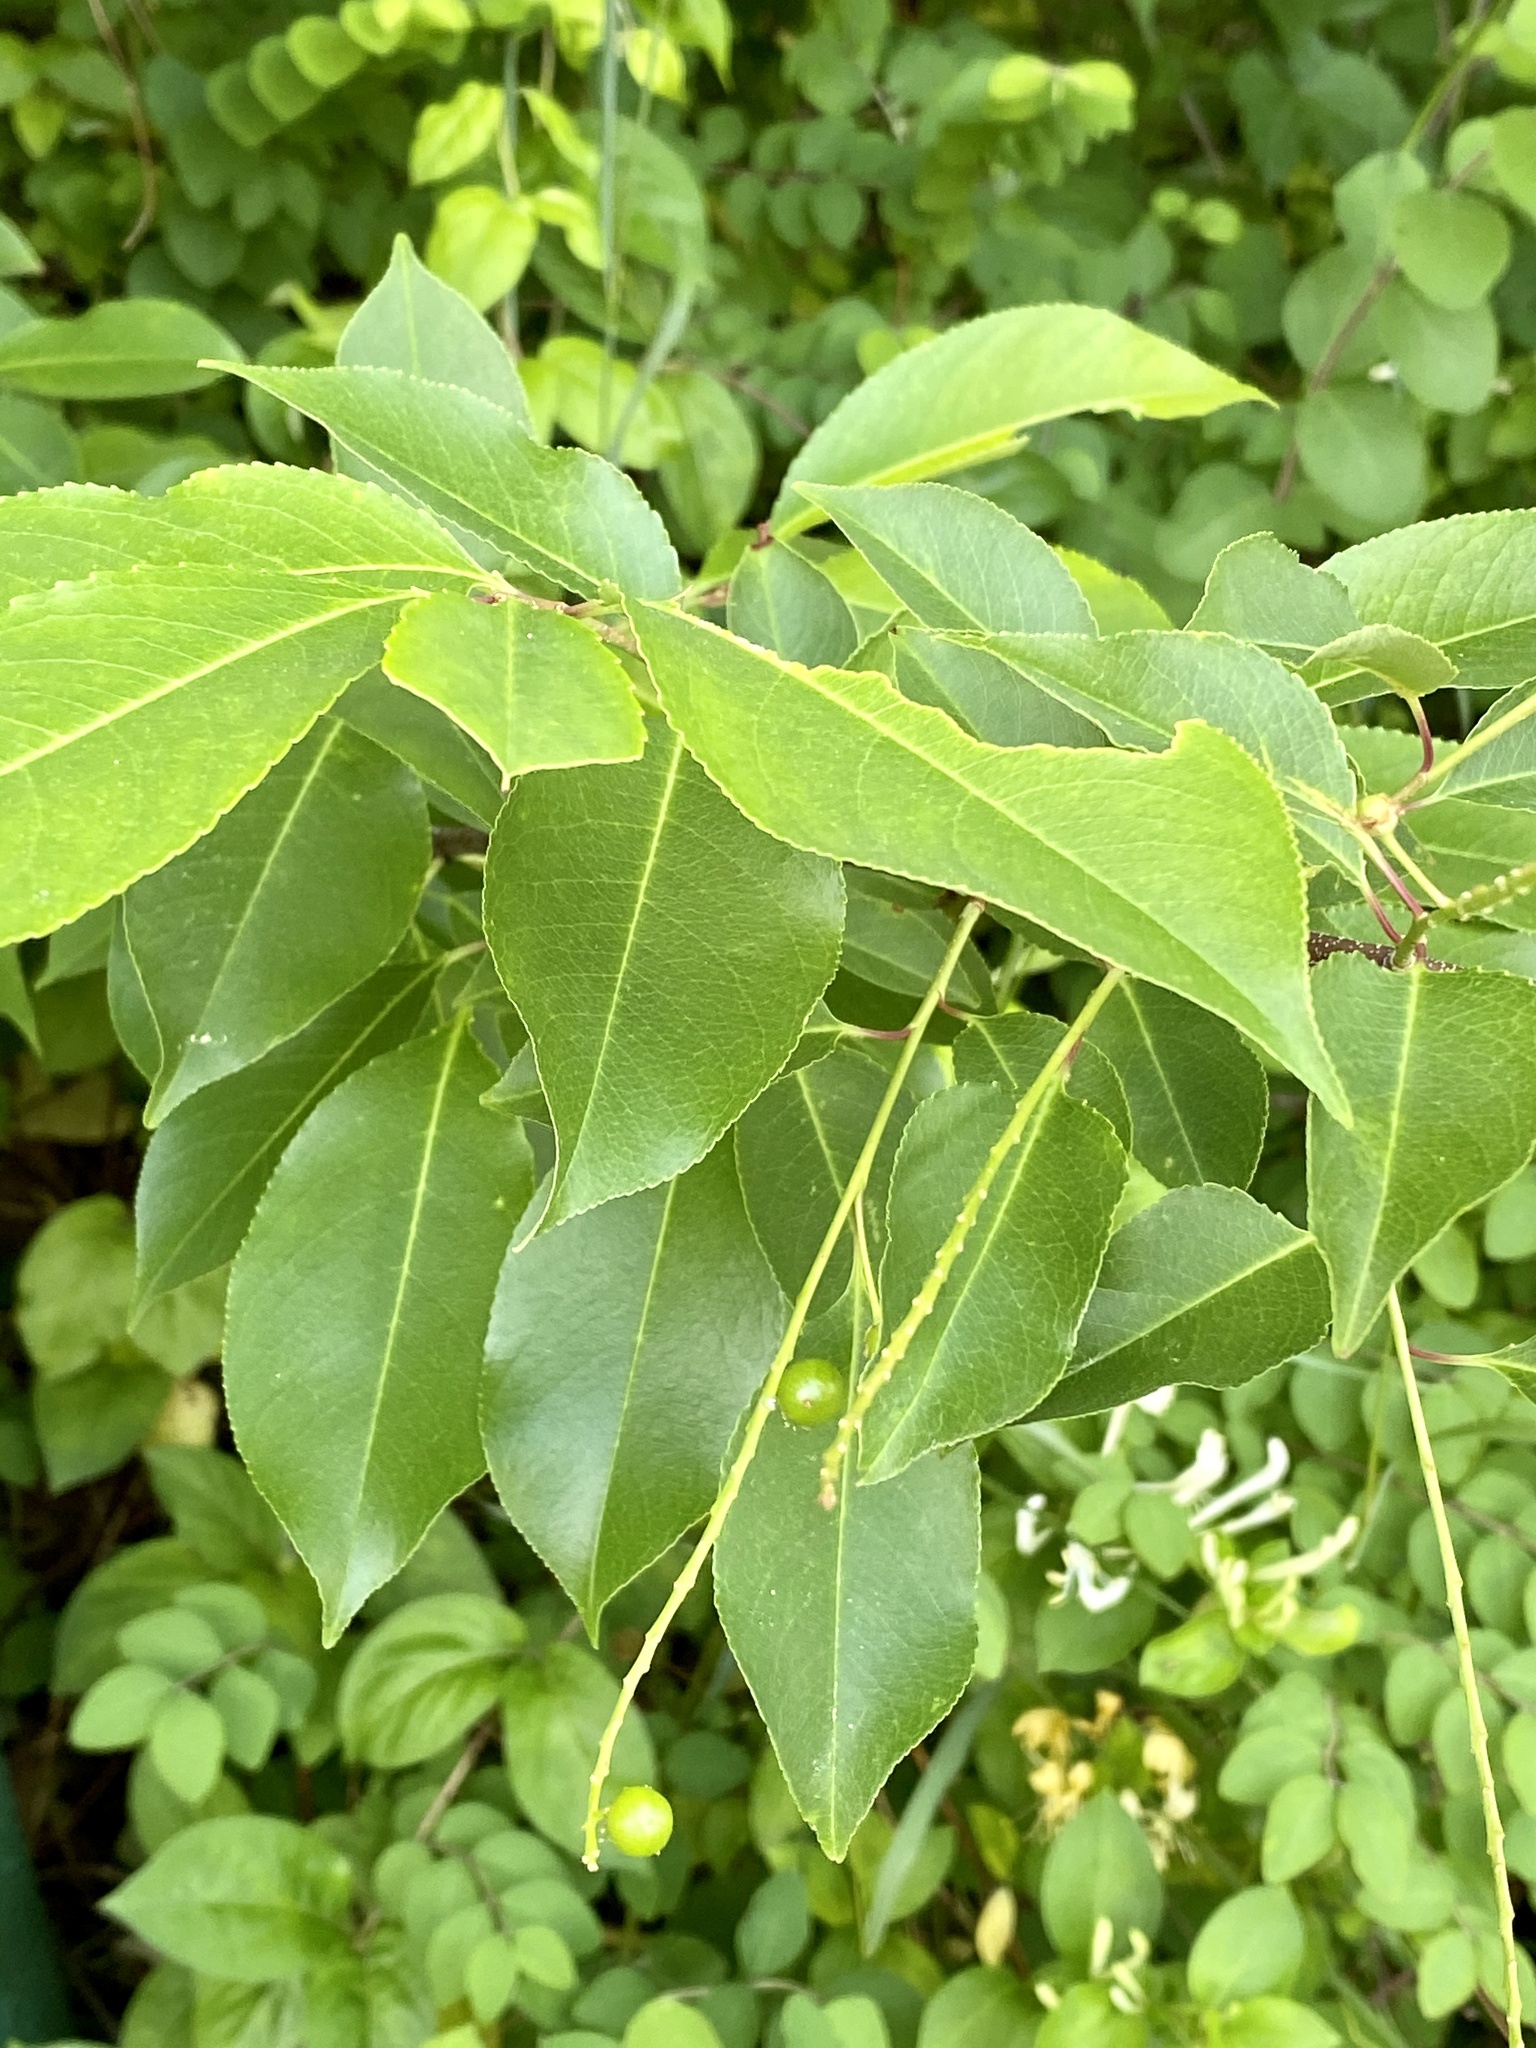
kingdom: Plantae
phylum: Tracheophyta
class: Magnoliopsida
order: Rosales
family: Rosaceae
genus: Prunus
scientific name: Prunus serotina
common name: Black cherry
